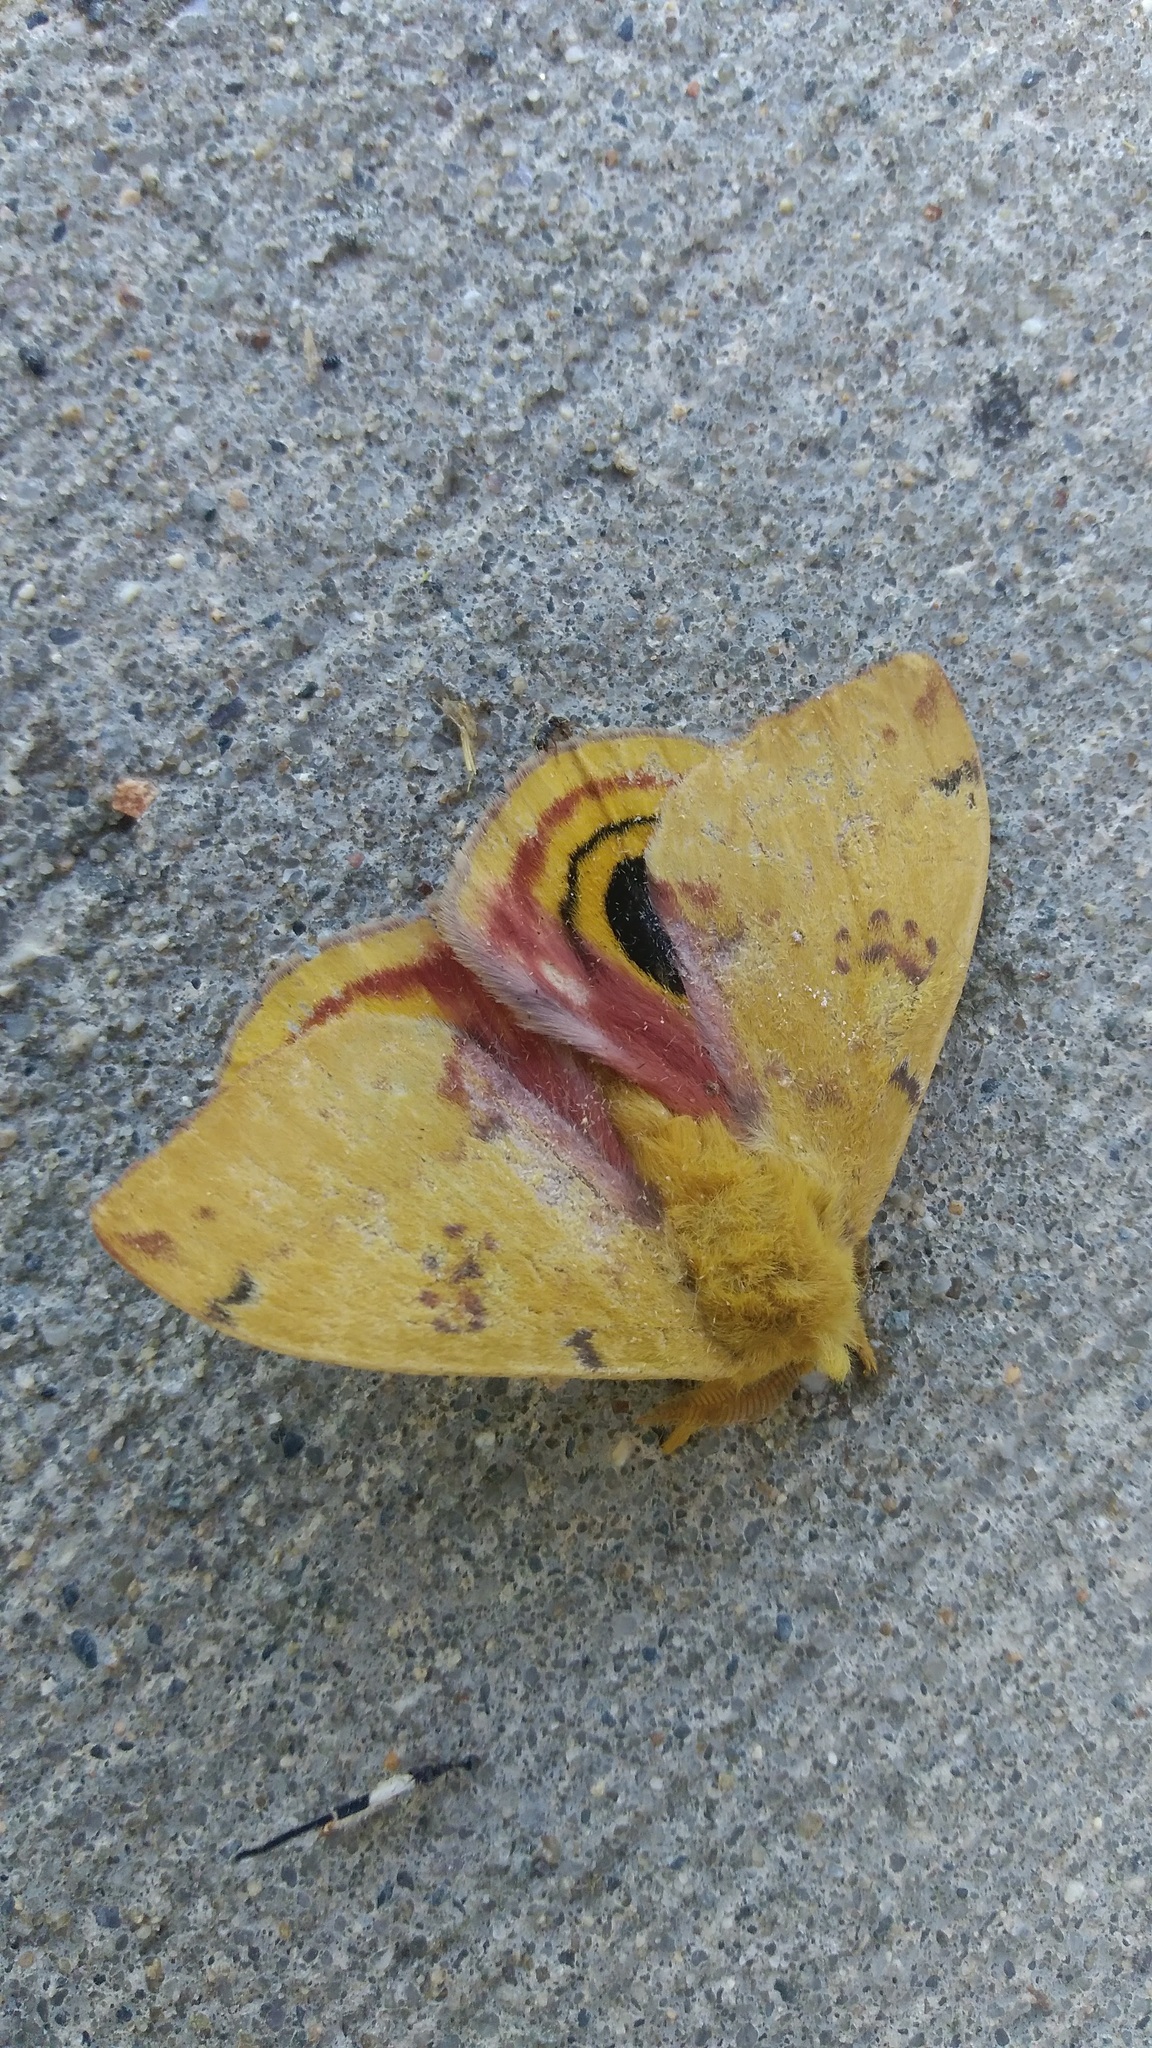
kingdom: Animalia
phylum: Arthropoda
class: Insecta
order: Lepidoptera
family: Saturniidae
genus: Automeris
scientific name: Automeris io
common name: Io moth
